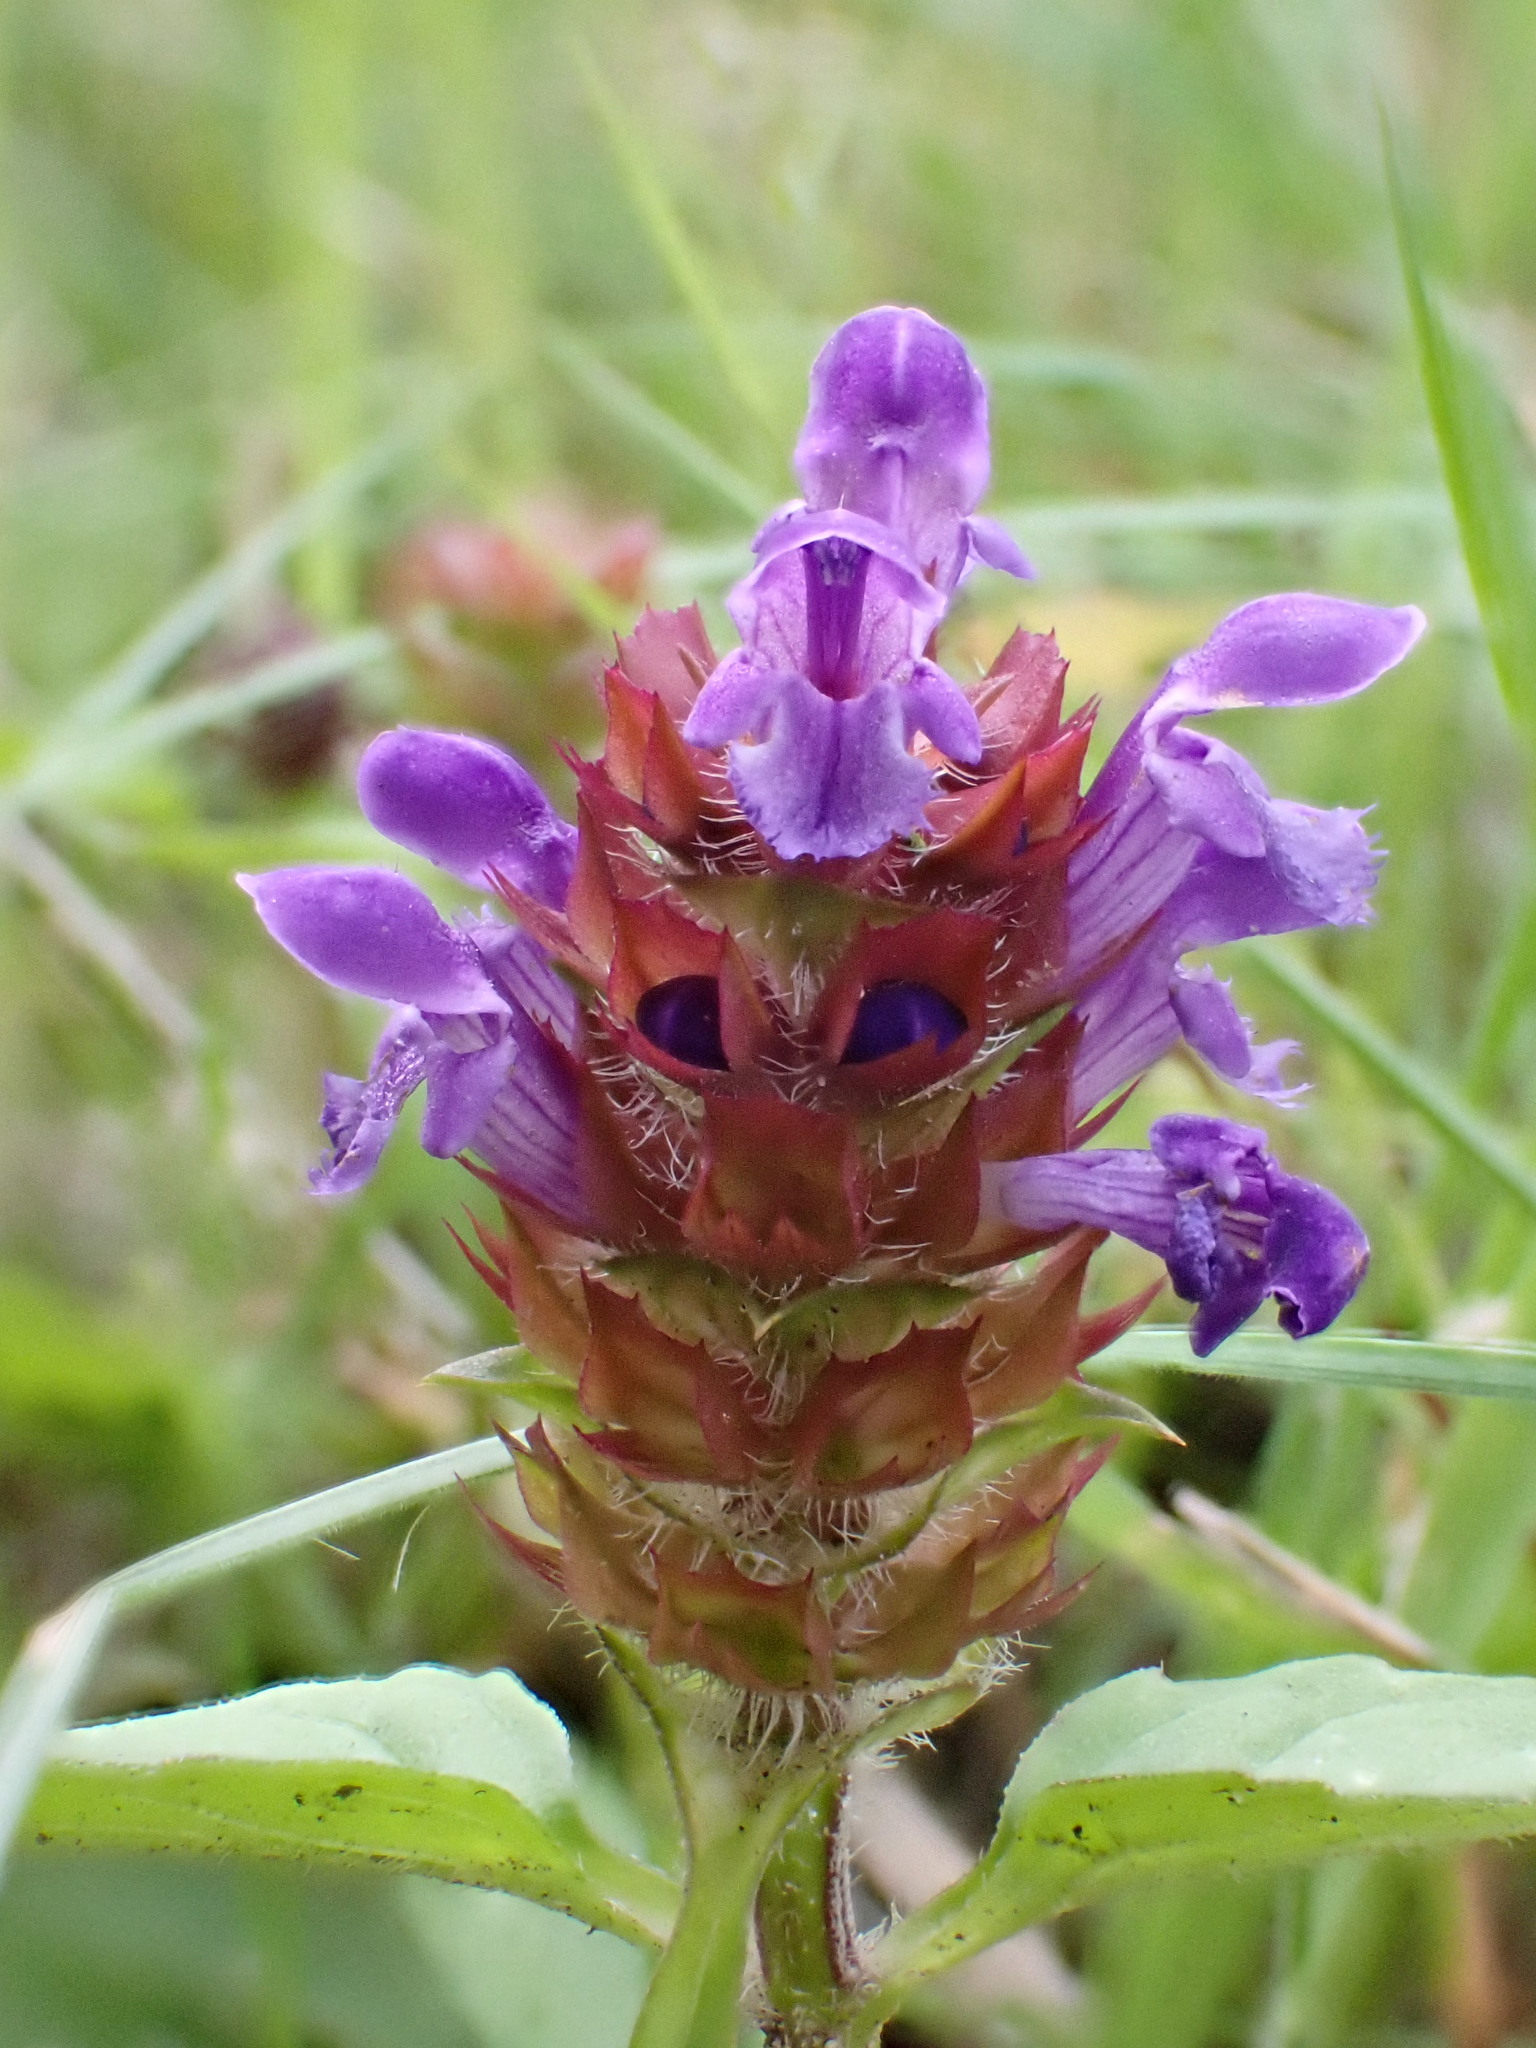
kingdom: Plantae
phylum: Tracheophyta
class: Magnoliopsida
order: Lamiales
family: Lamiaceae
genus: Prunella
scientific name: Prunella vulgaris
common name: Heal-all
